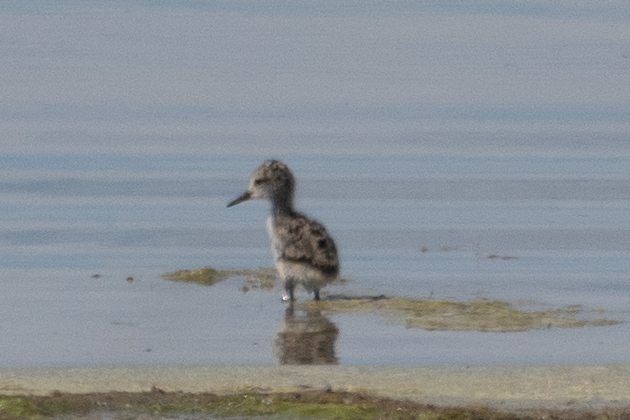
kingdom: Animalia
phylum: Chordata
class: Aves
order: Charadriiformes
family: Recurvirostridae
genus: Recurvirostra
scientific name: Recurvirostra americana
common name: American avocet
